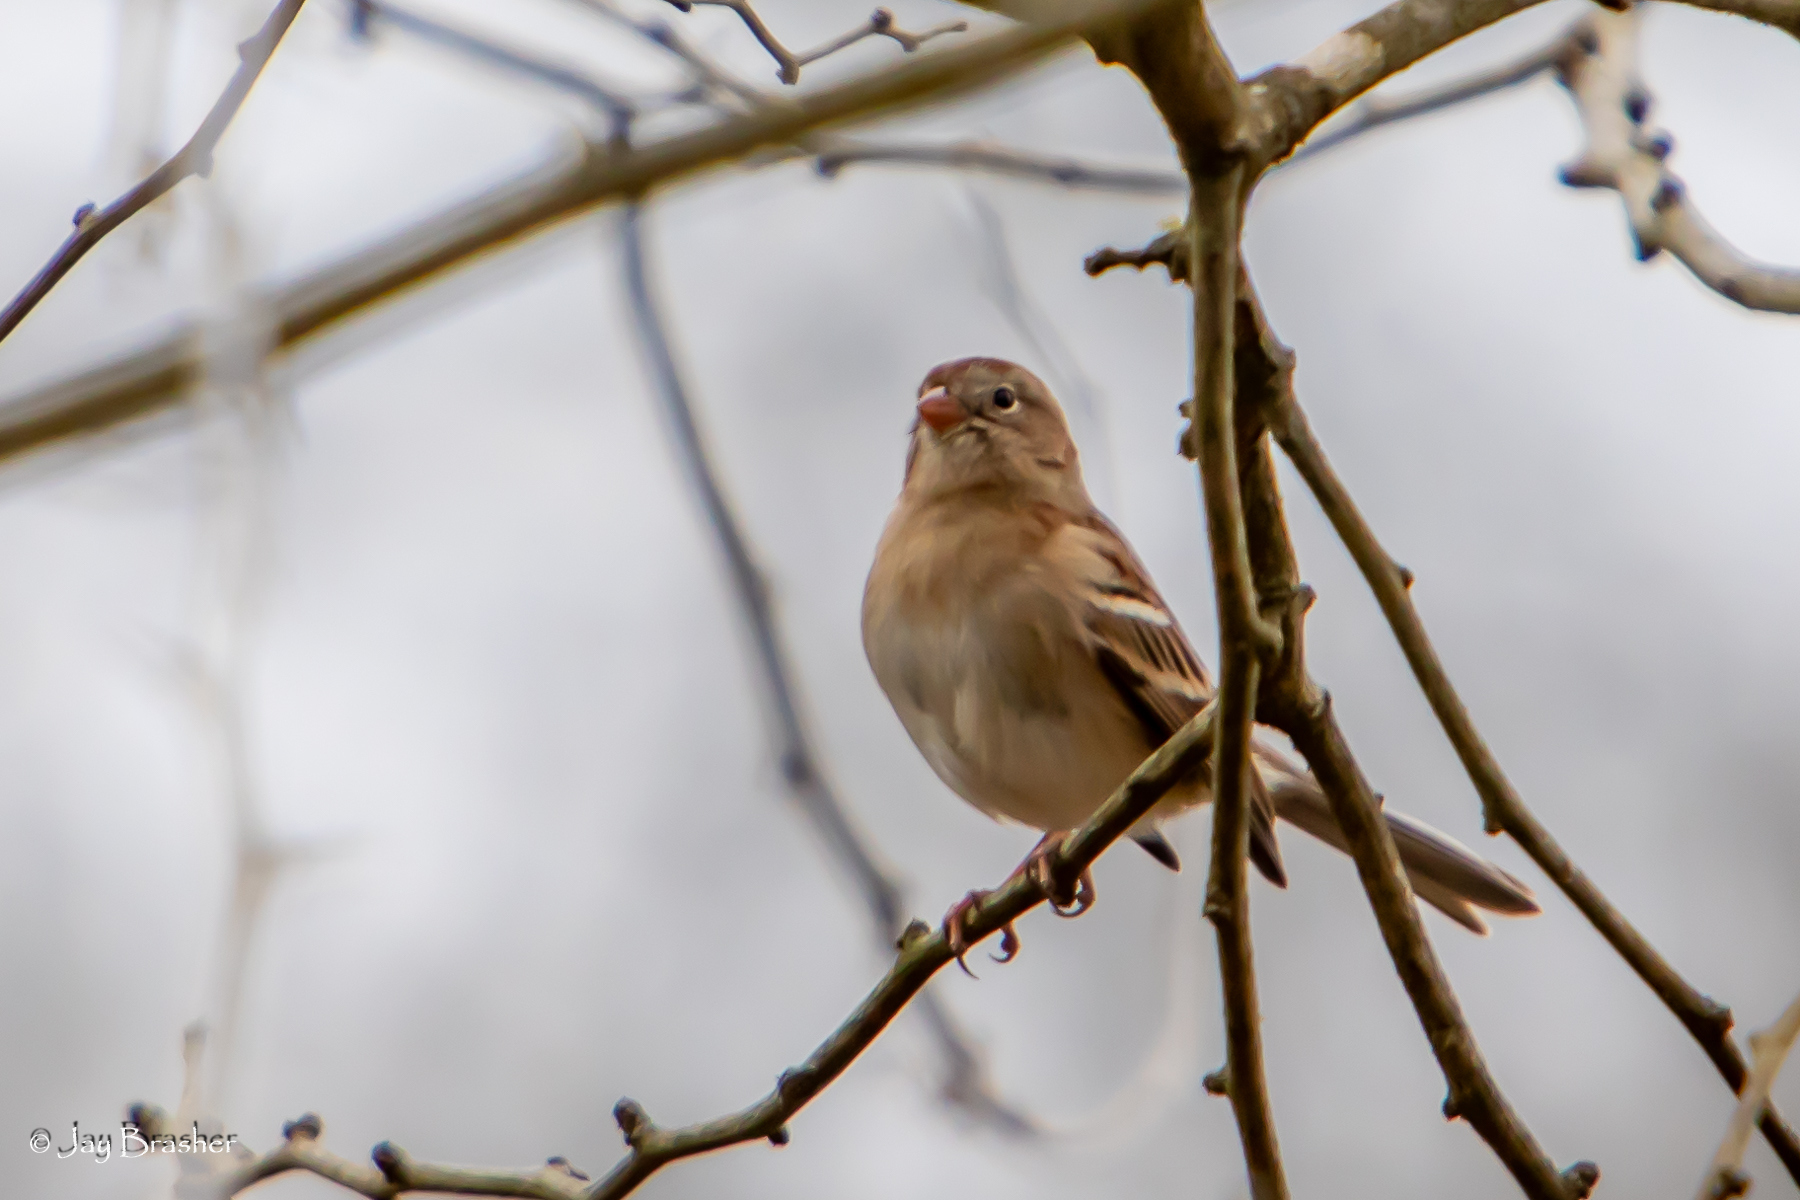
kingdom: Animalia
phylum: Chordata
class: Aves
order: Passeriformes
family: Passerellidae
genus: Spizella
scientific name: Spizella pusilla
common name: Field sparrow
